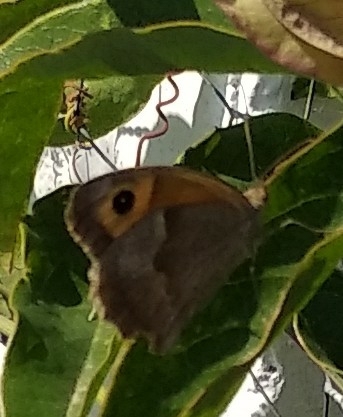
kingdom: Animalia
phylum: Arthropoda
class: Insecta
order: Lepidoptera
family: Nymphalidae
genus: Maniola
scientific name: Maniola jurtina
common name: Meadow brown
